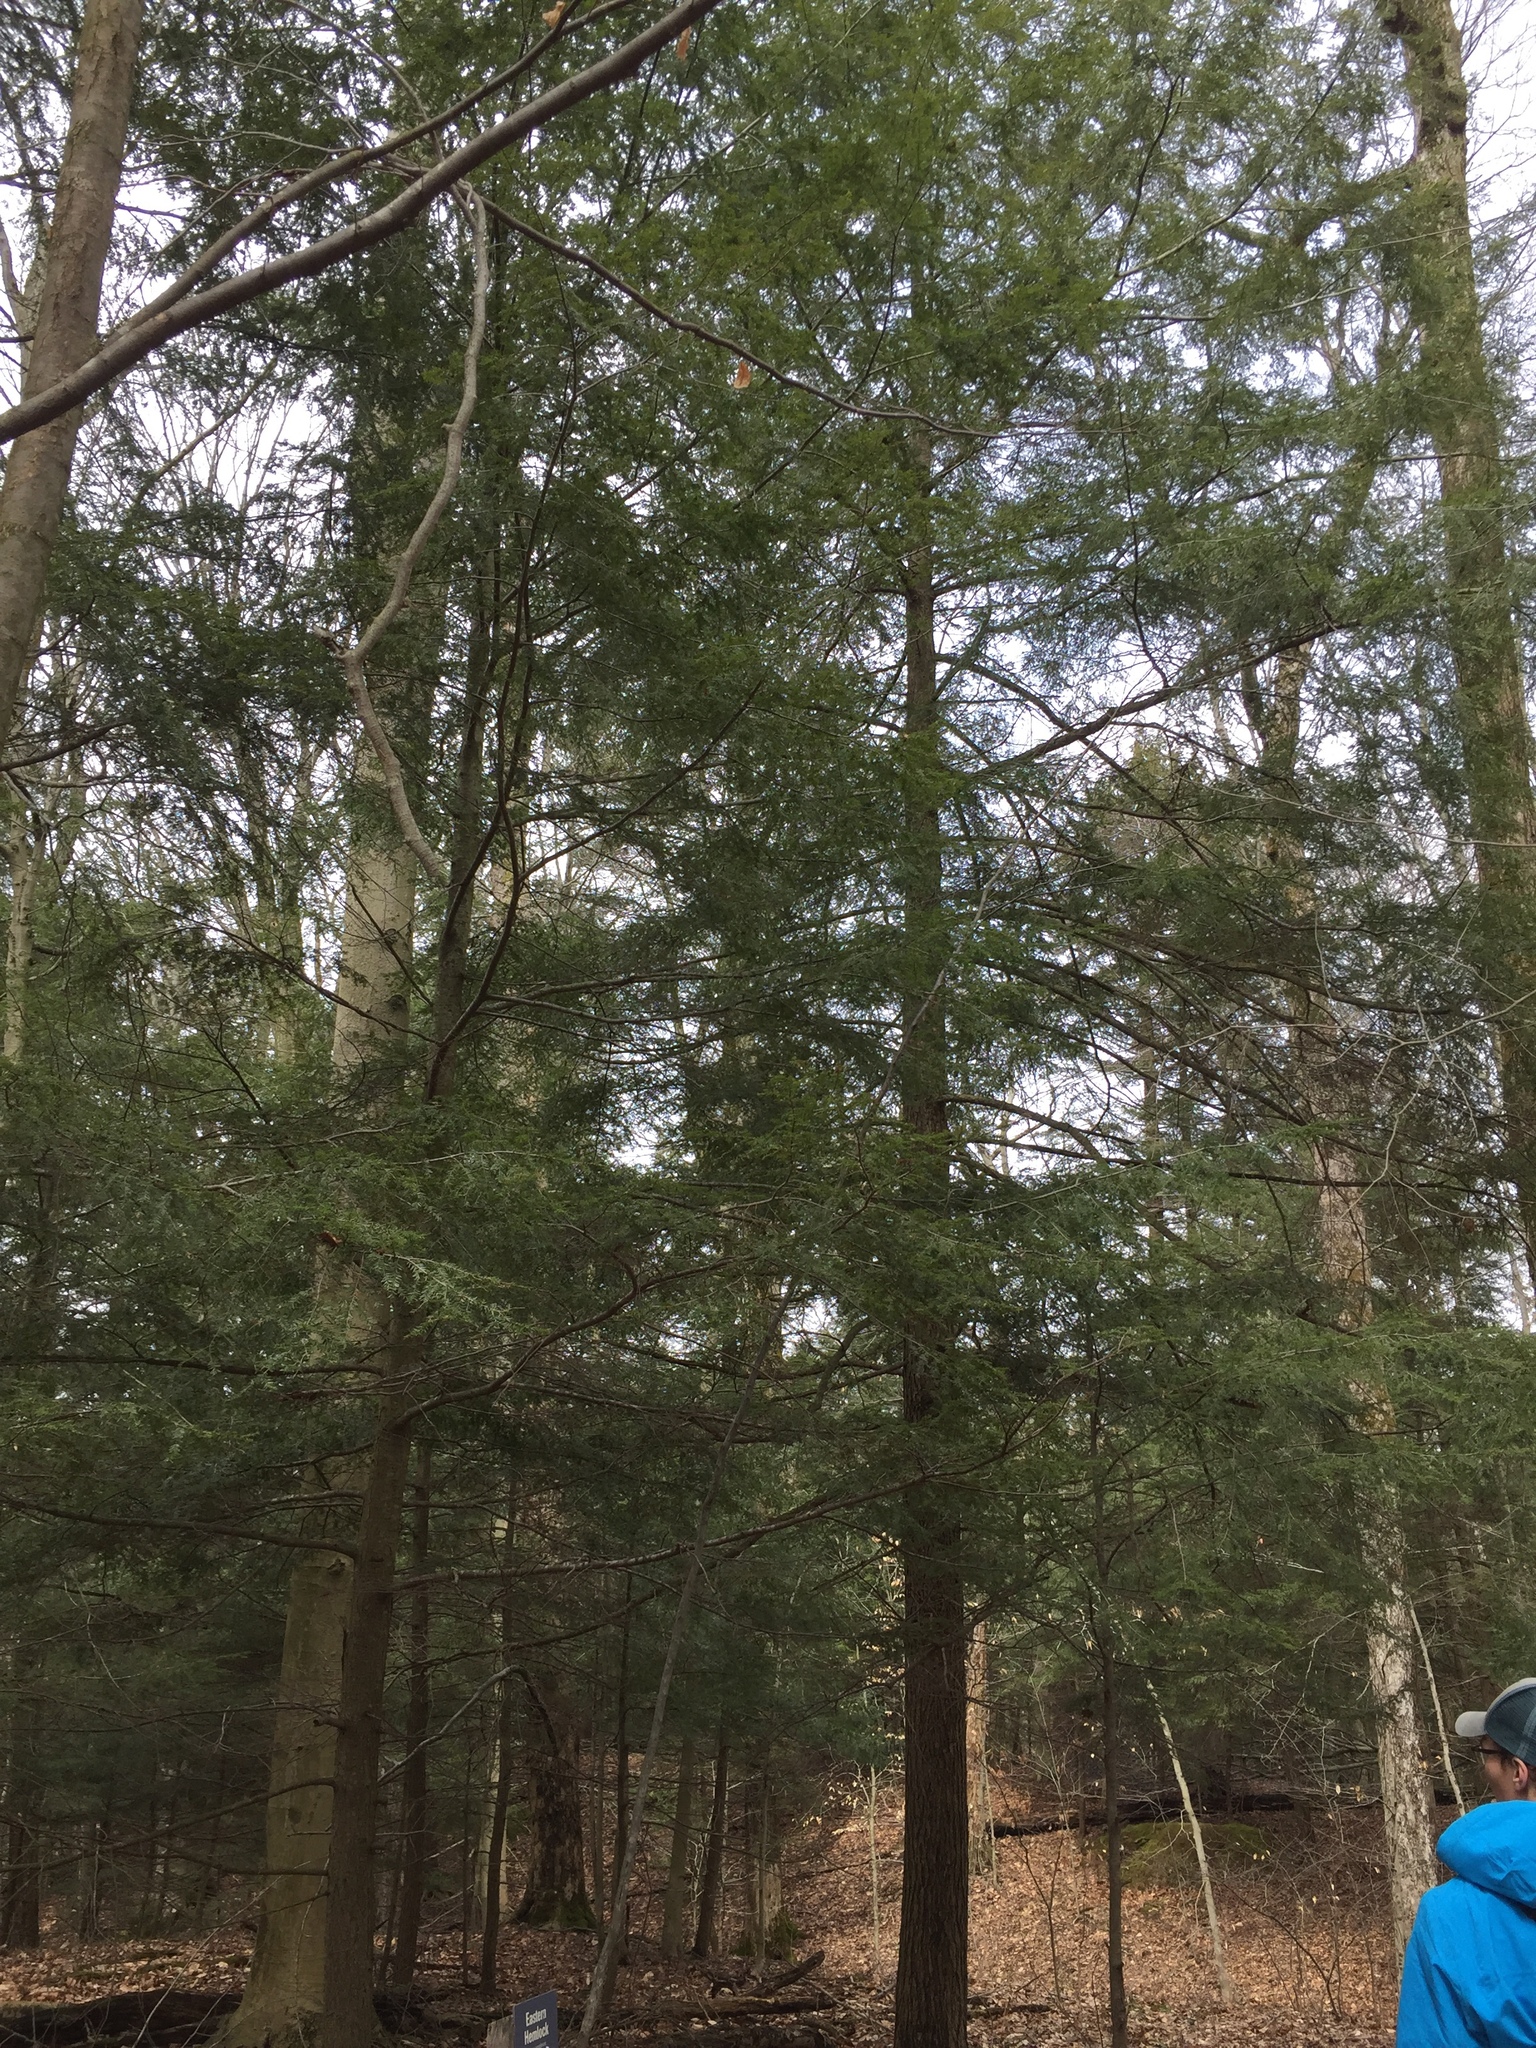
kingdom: Plantae
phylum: Tracheophyta
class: Pinopsida
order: Pinales
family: Pinaceae
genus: Tsuga
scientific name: Tsuga canadensis
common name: Eastern hemlock
